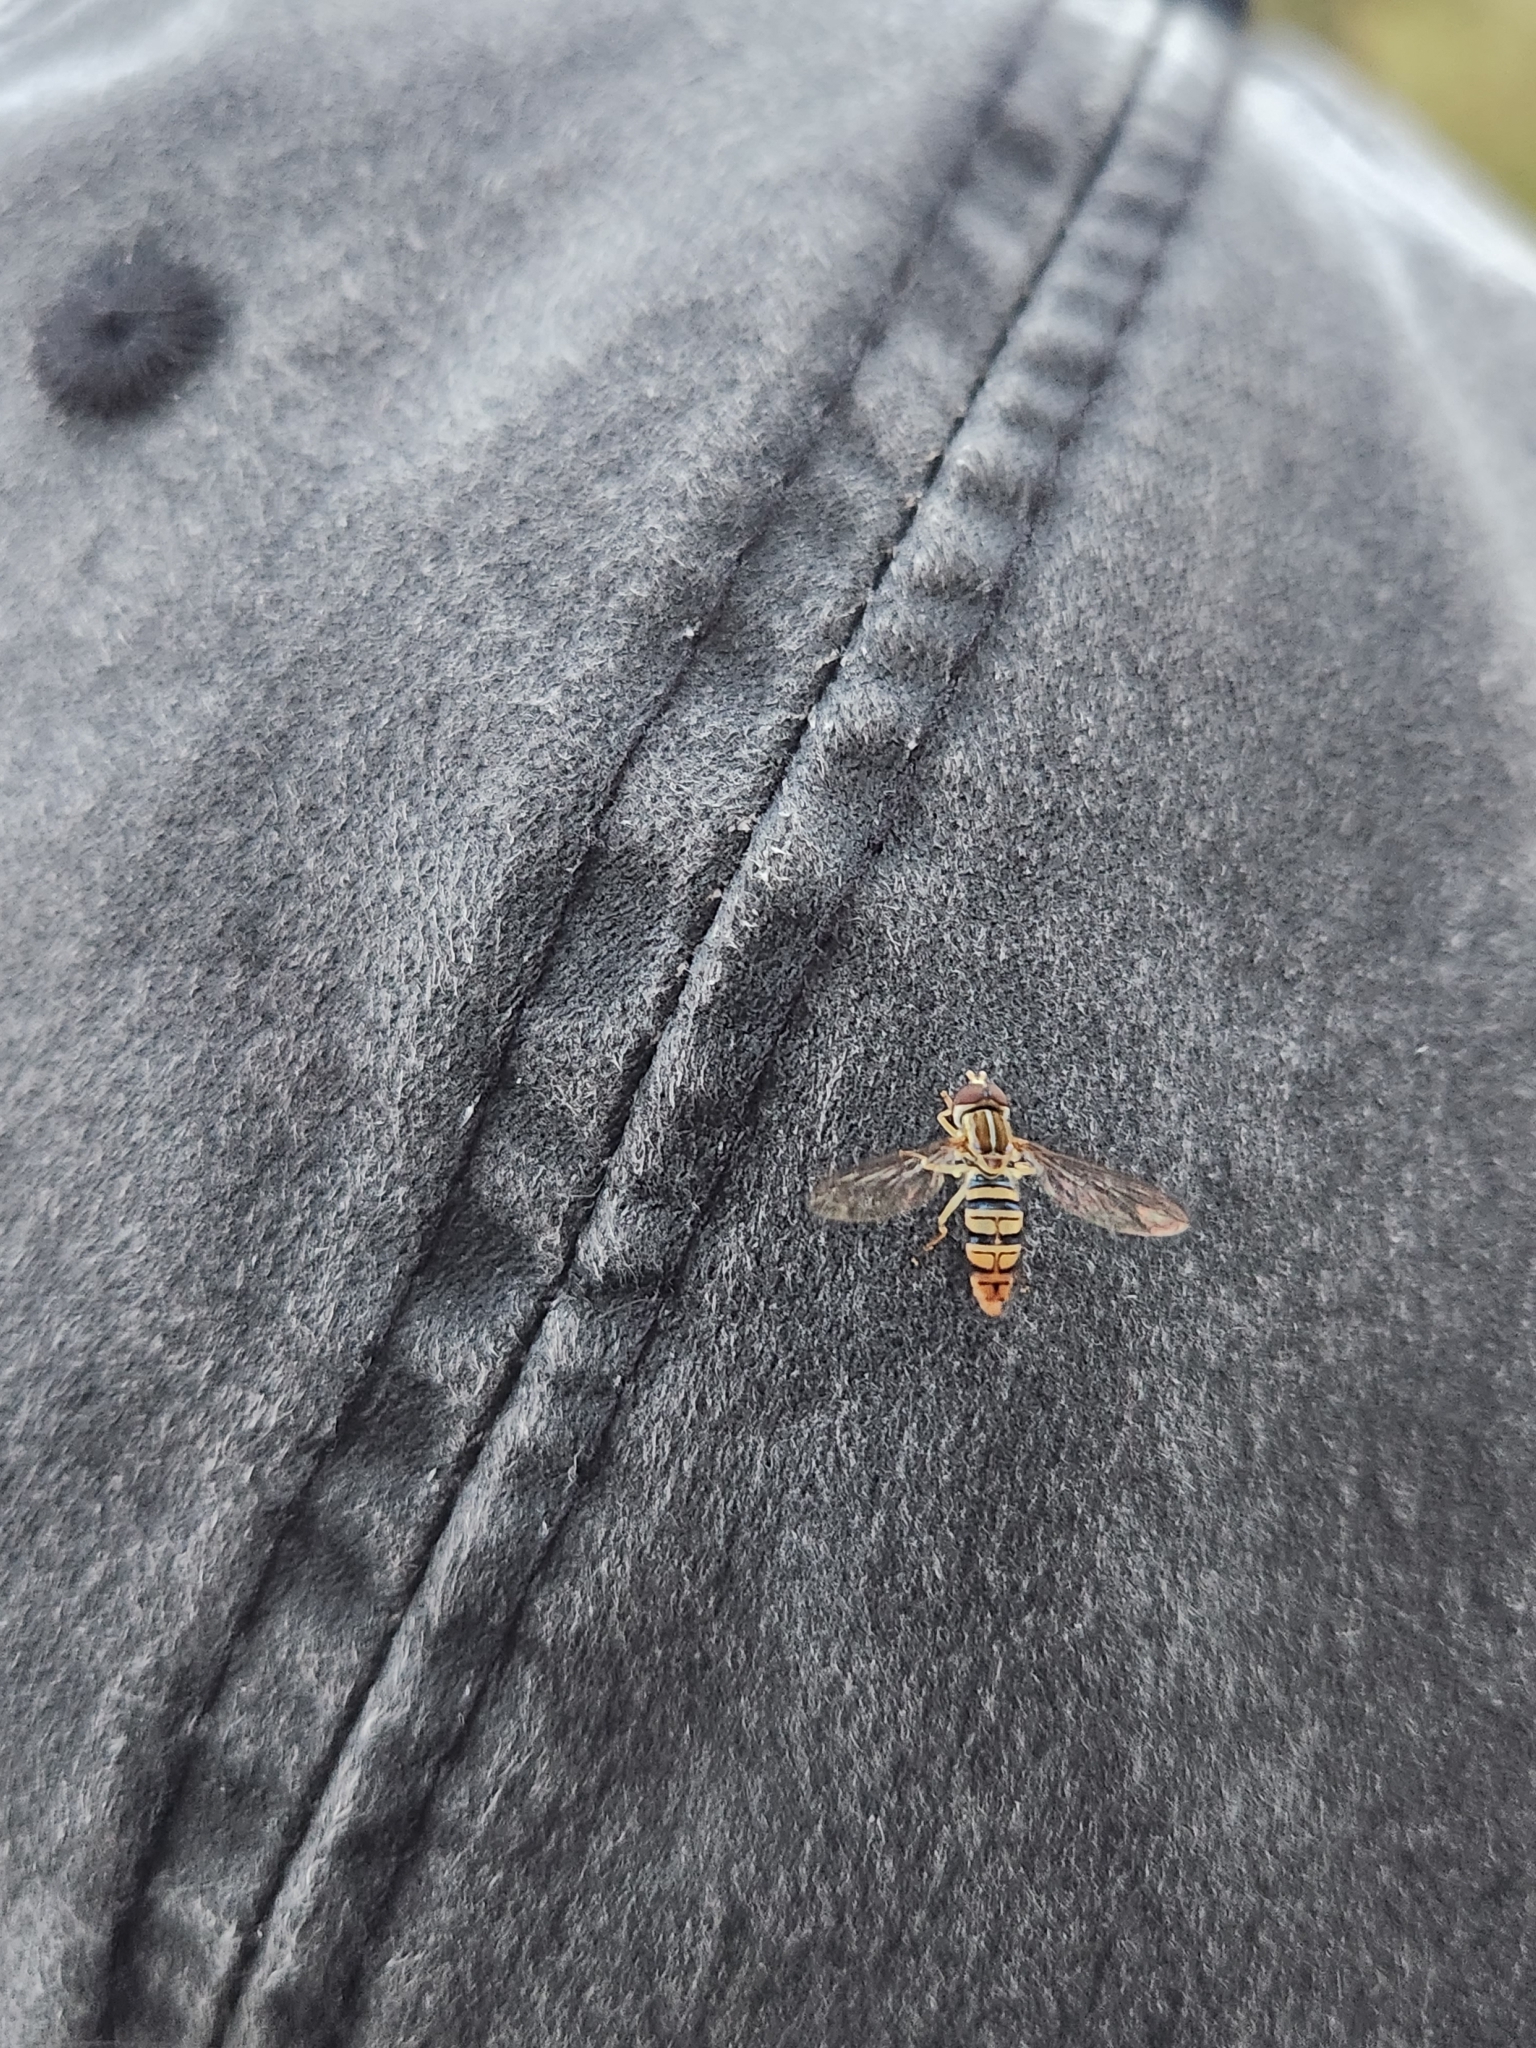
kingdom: Animalia
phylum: Arthropoda
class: Insecta
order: Diptera
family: Syrphidae
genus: Toxomerus
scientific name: Toxomerus politus
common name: Maize calligrapher
